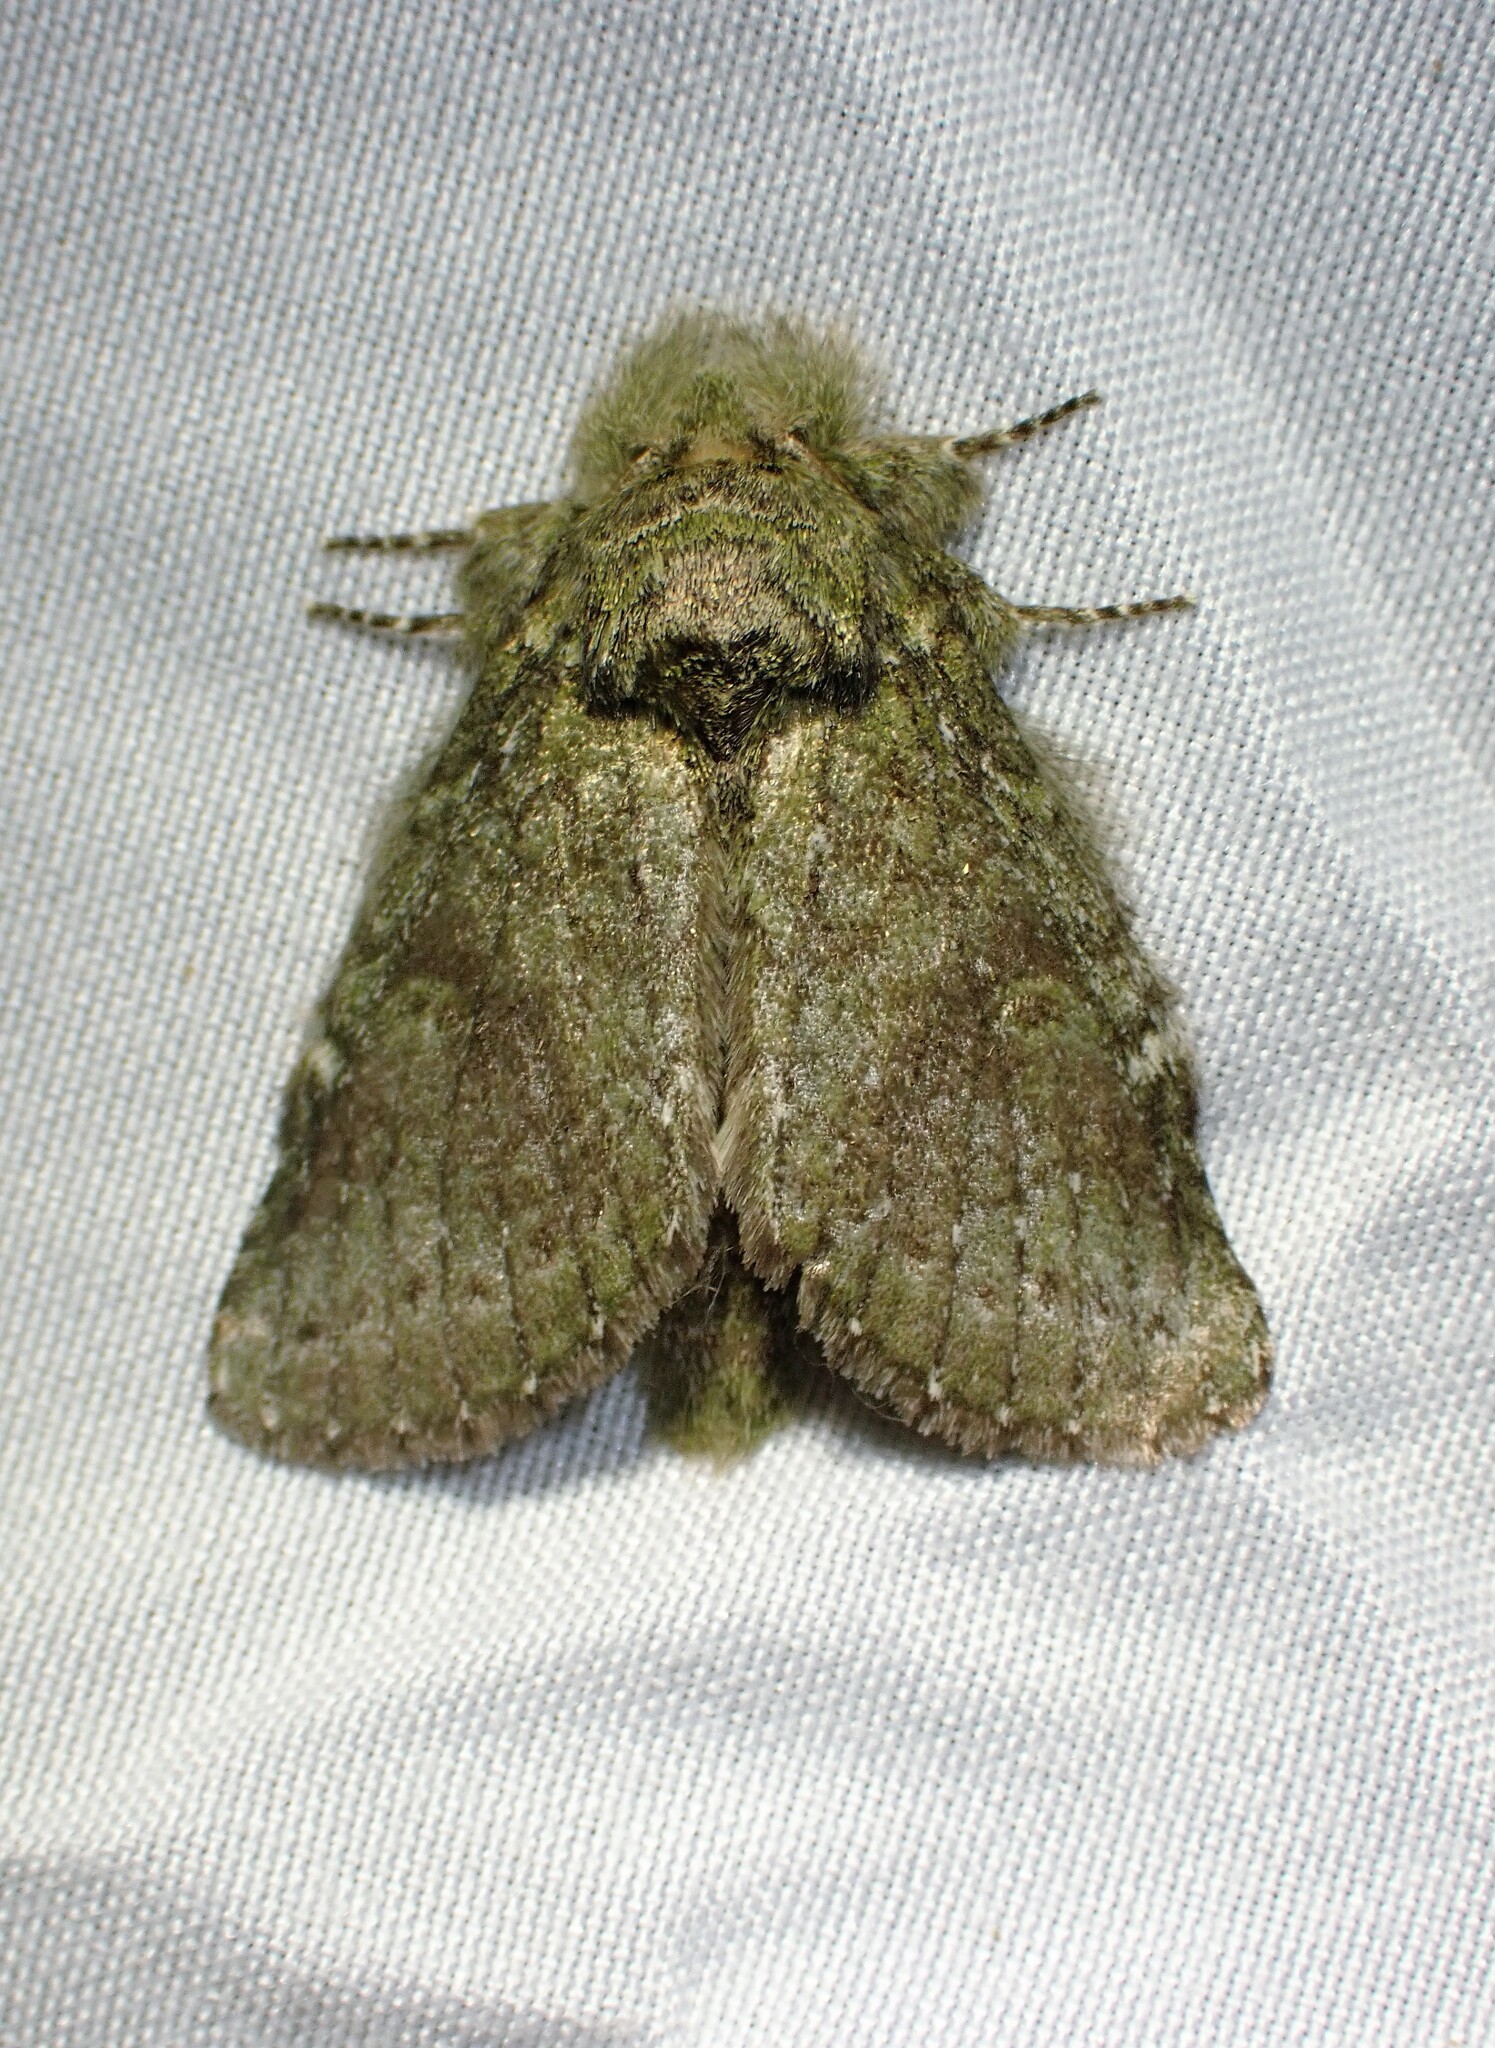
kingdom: Animalia
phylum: Arthropoda
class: Insecta
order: Lepidoptera
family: Notodontidae
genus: Disphragis
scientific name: Disphragis Cecrita guttivitta
